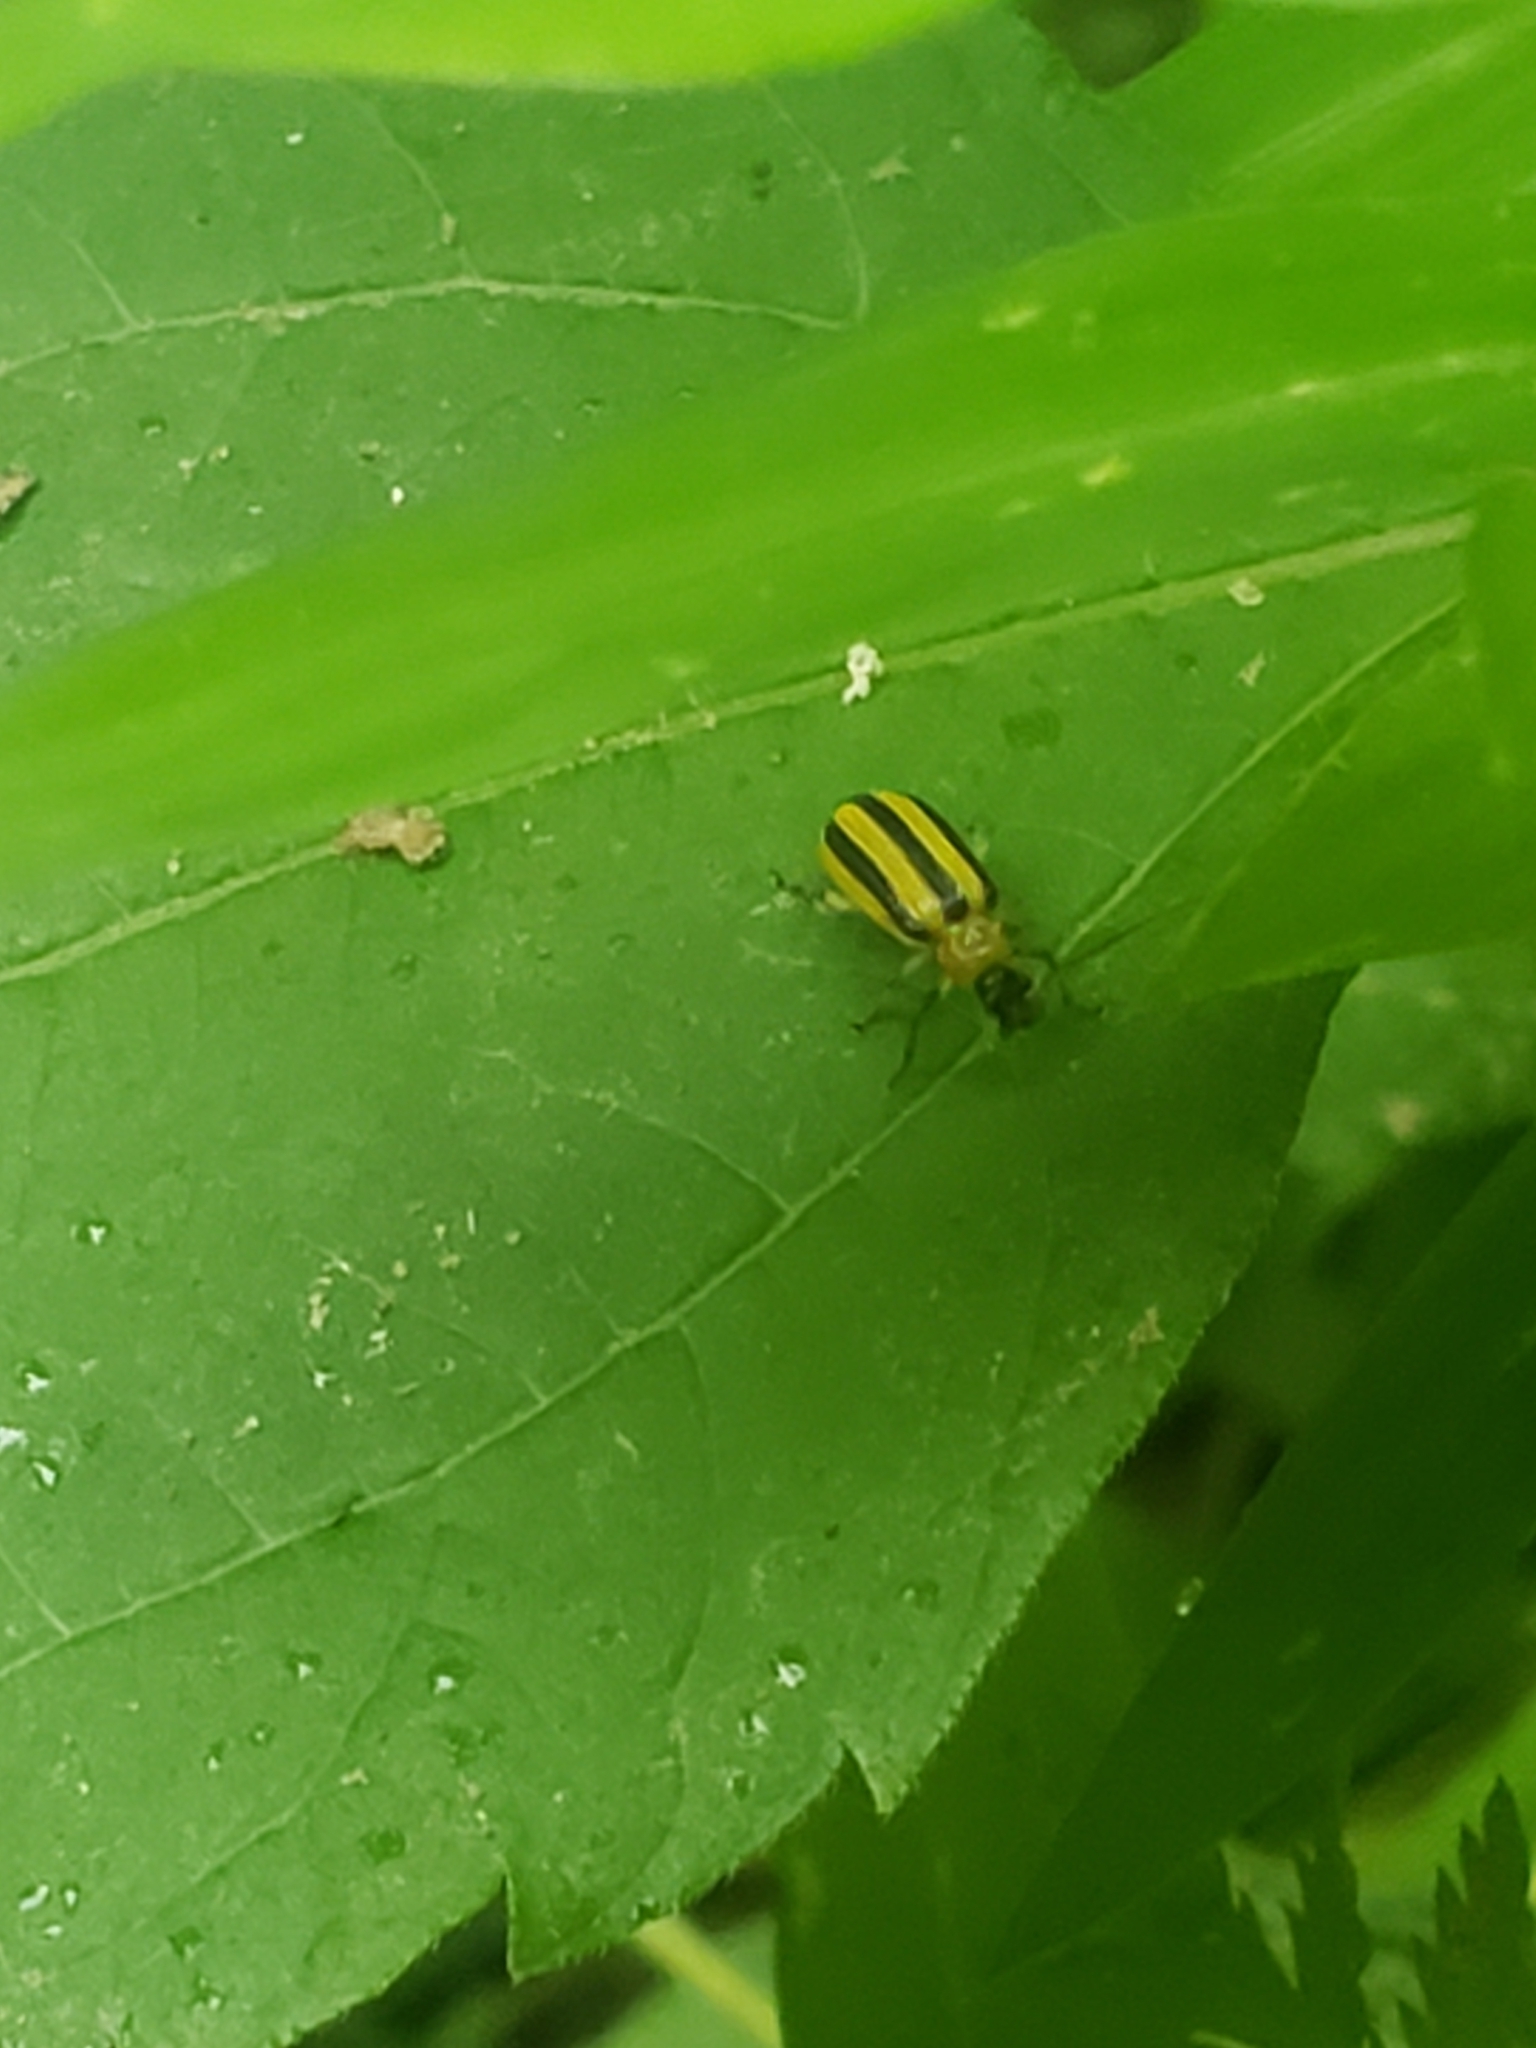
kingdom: Animalia
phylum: Arthropoda
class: Insecta
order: Coleoptera
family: Chrysomelidae
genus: Acalymma
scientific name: Acalymma vittatum
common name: Striped cucumber beetle
